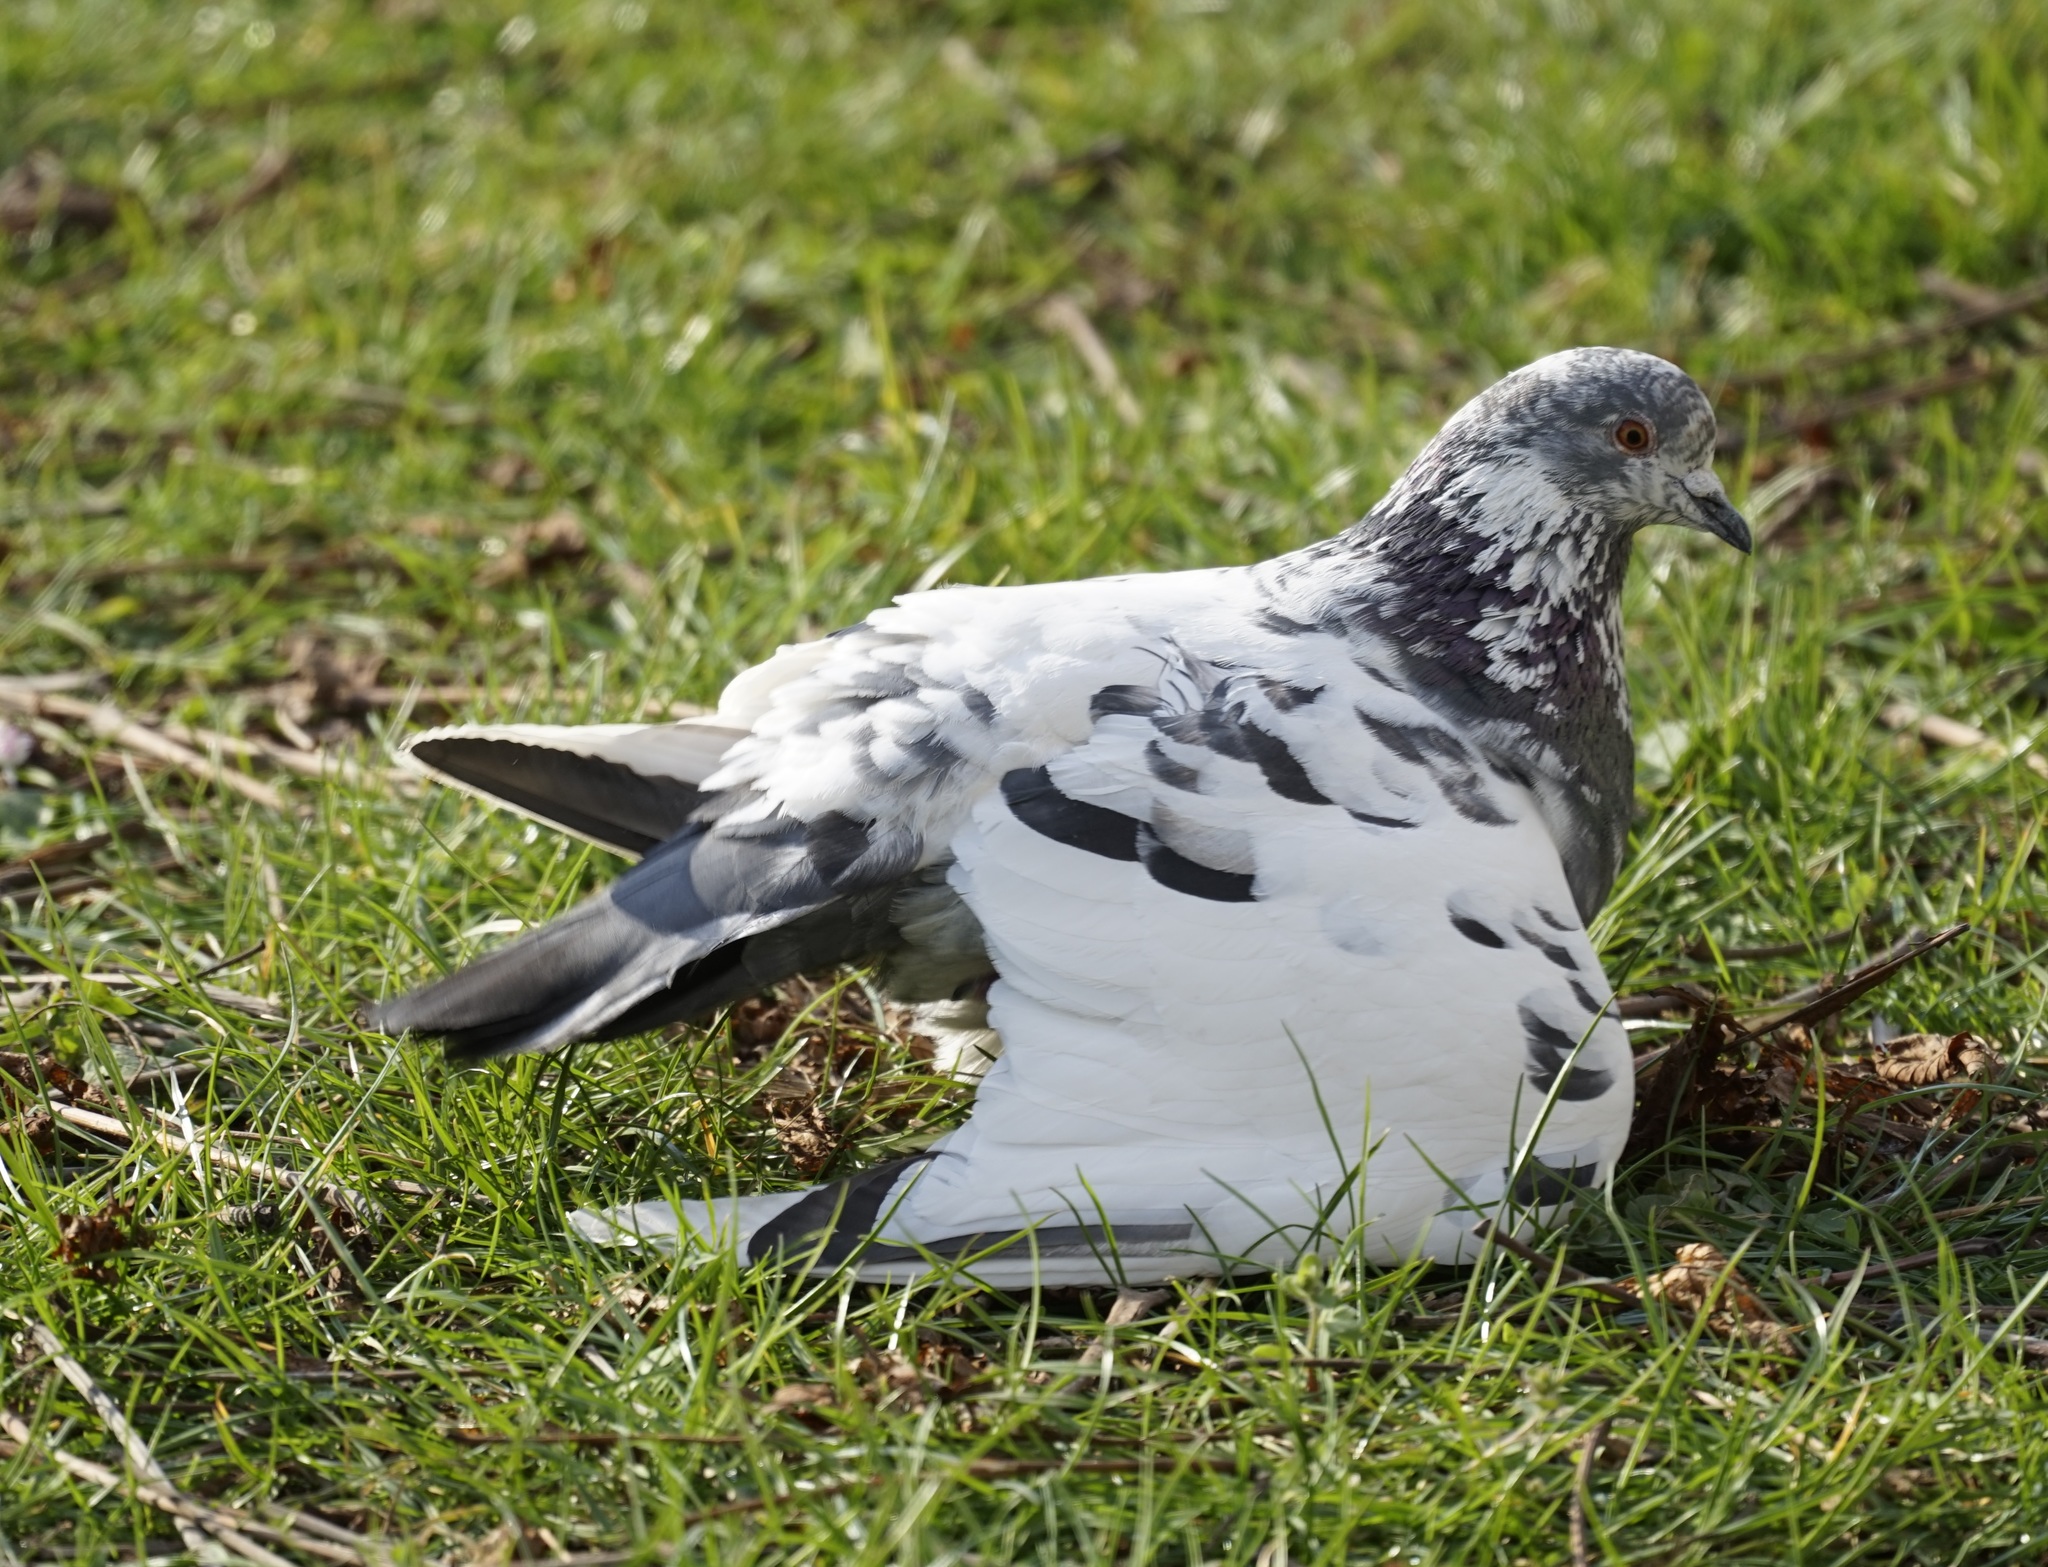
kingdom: Animalia
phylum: Chordata
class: Aves
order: Columbiformes
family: Columbidae
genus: Columba
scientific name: Columba livia
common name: Rock pigeon
